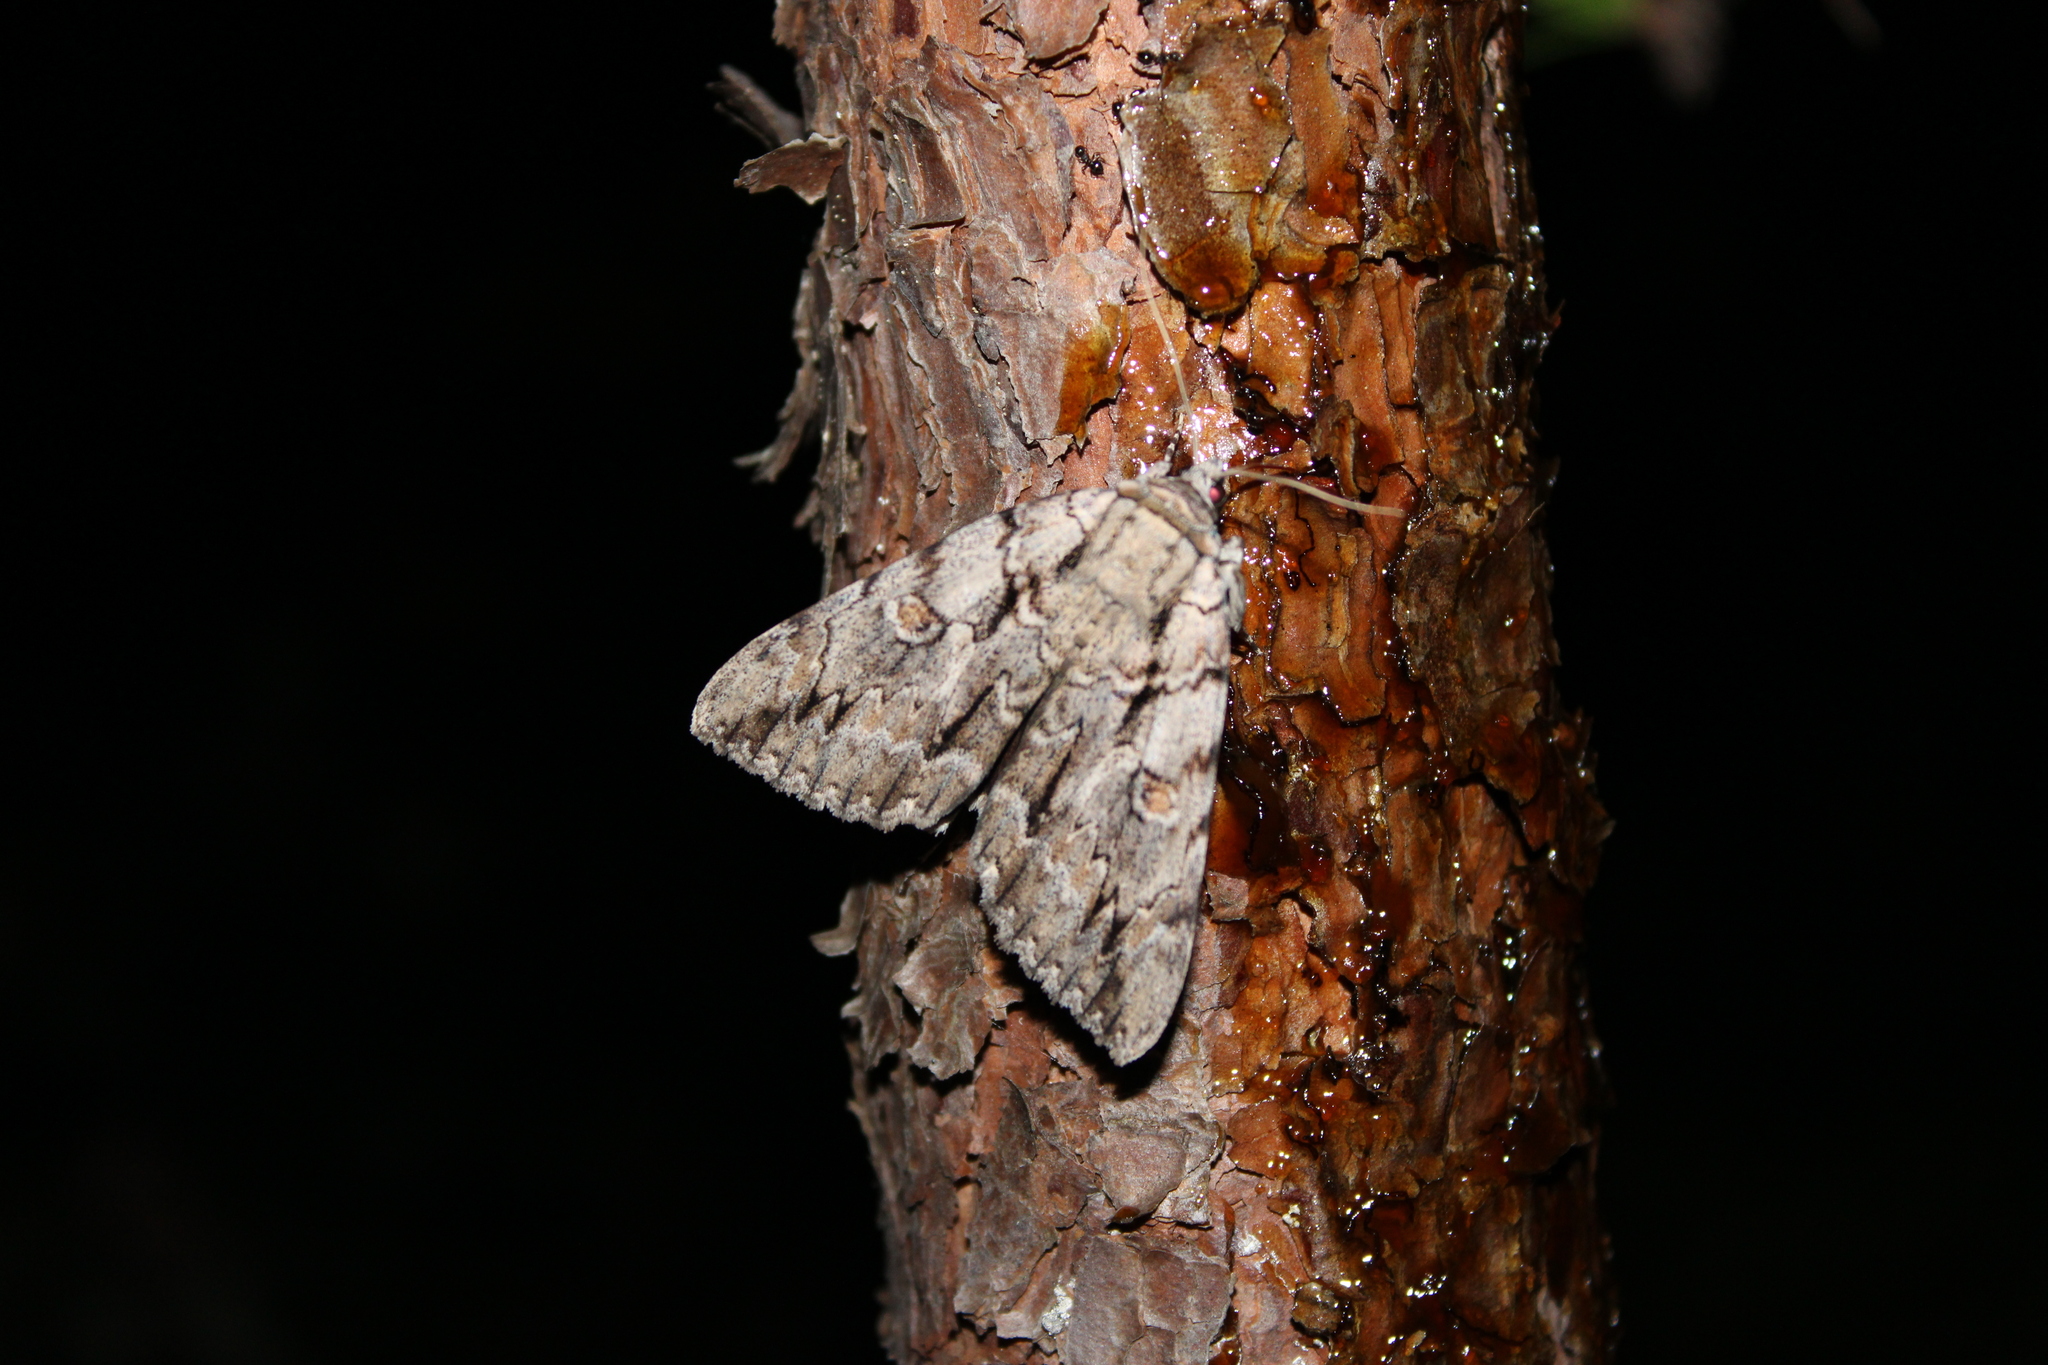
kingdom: Animalia
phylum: Arthropoda
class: Insecta
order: Lepidoptera
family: Erebidae
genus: Catocala
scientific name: Catocala retecta
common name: Yellow-gray underwing
